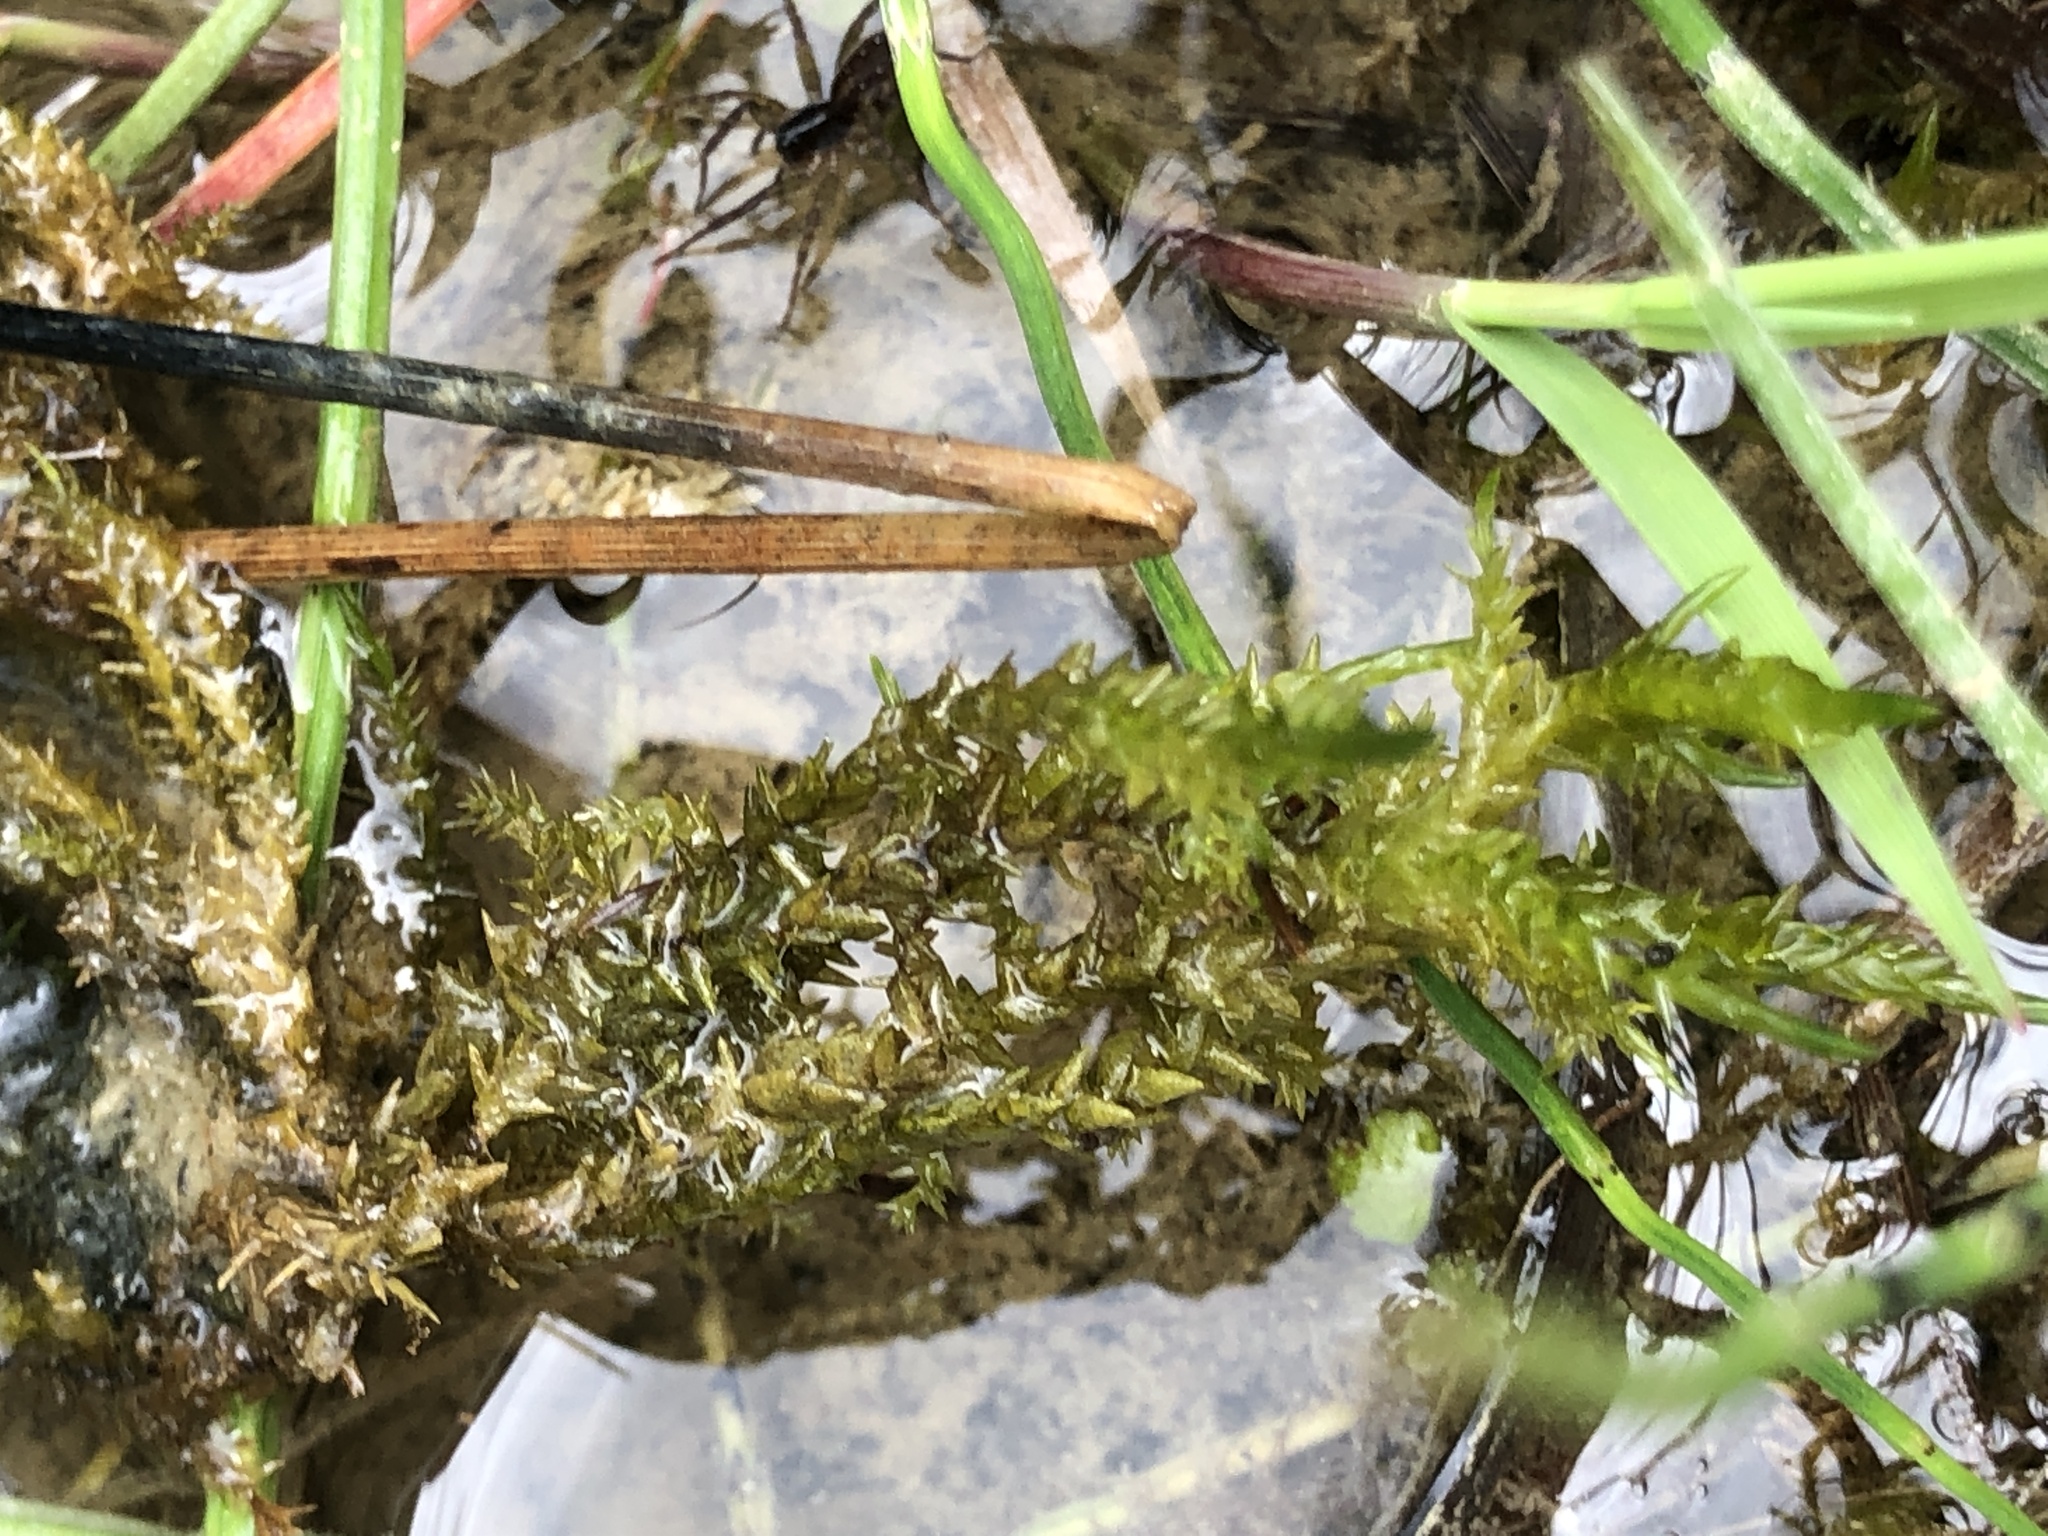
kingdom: Plantae
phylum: Bryophyta
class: Bryopsida
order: Hypnales
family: Pylaisiaceae
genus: Calliergonella
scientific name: Calliergonella cuspidata
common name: Common large wetland moss
